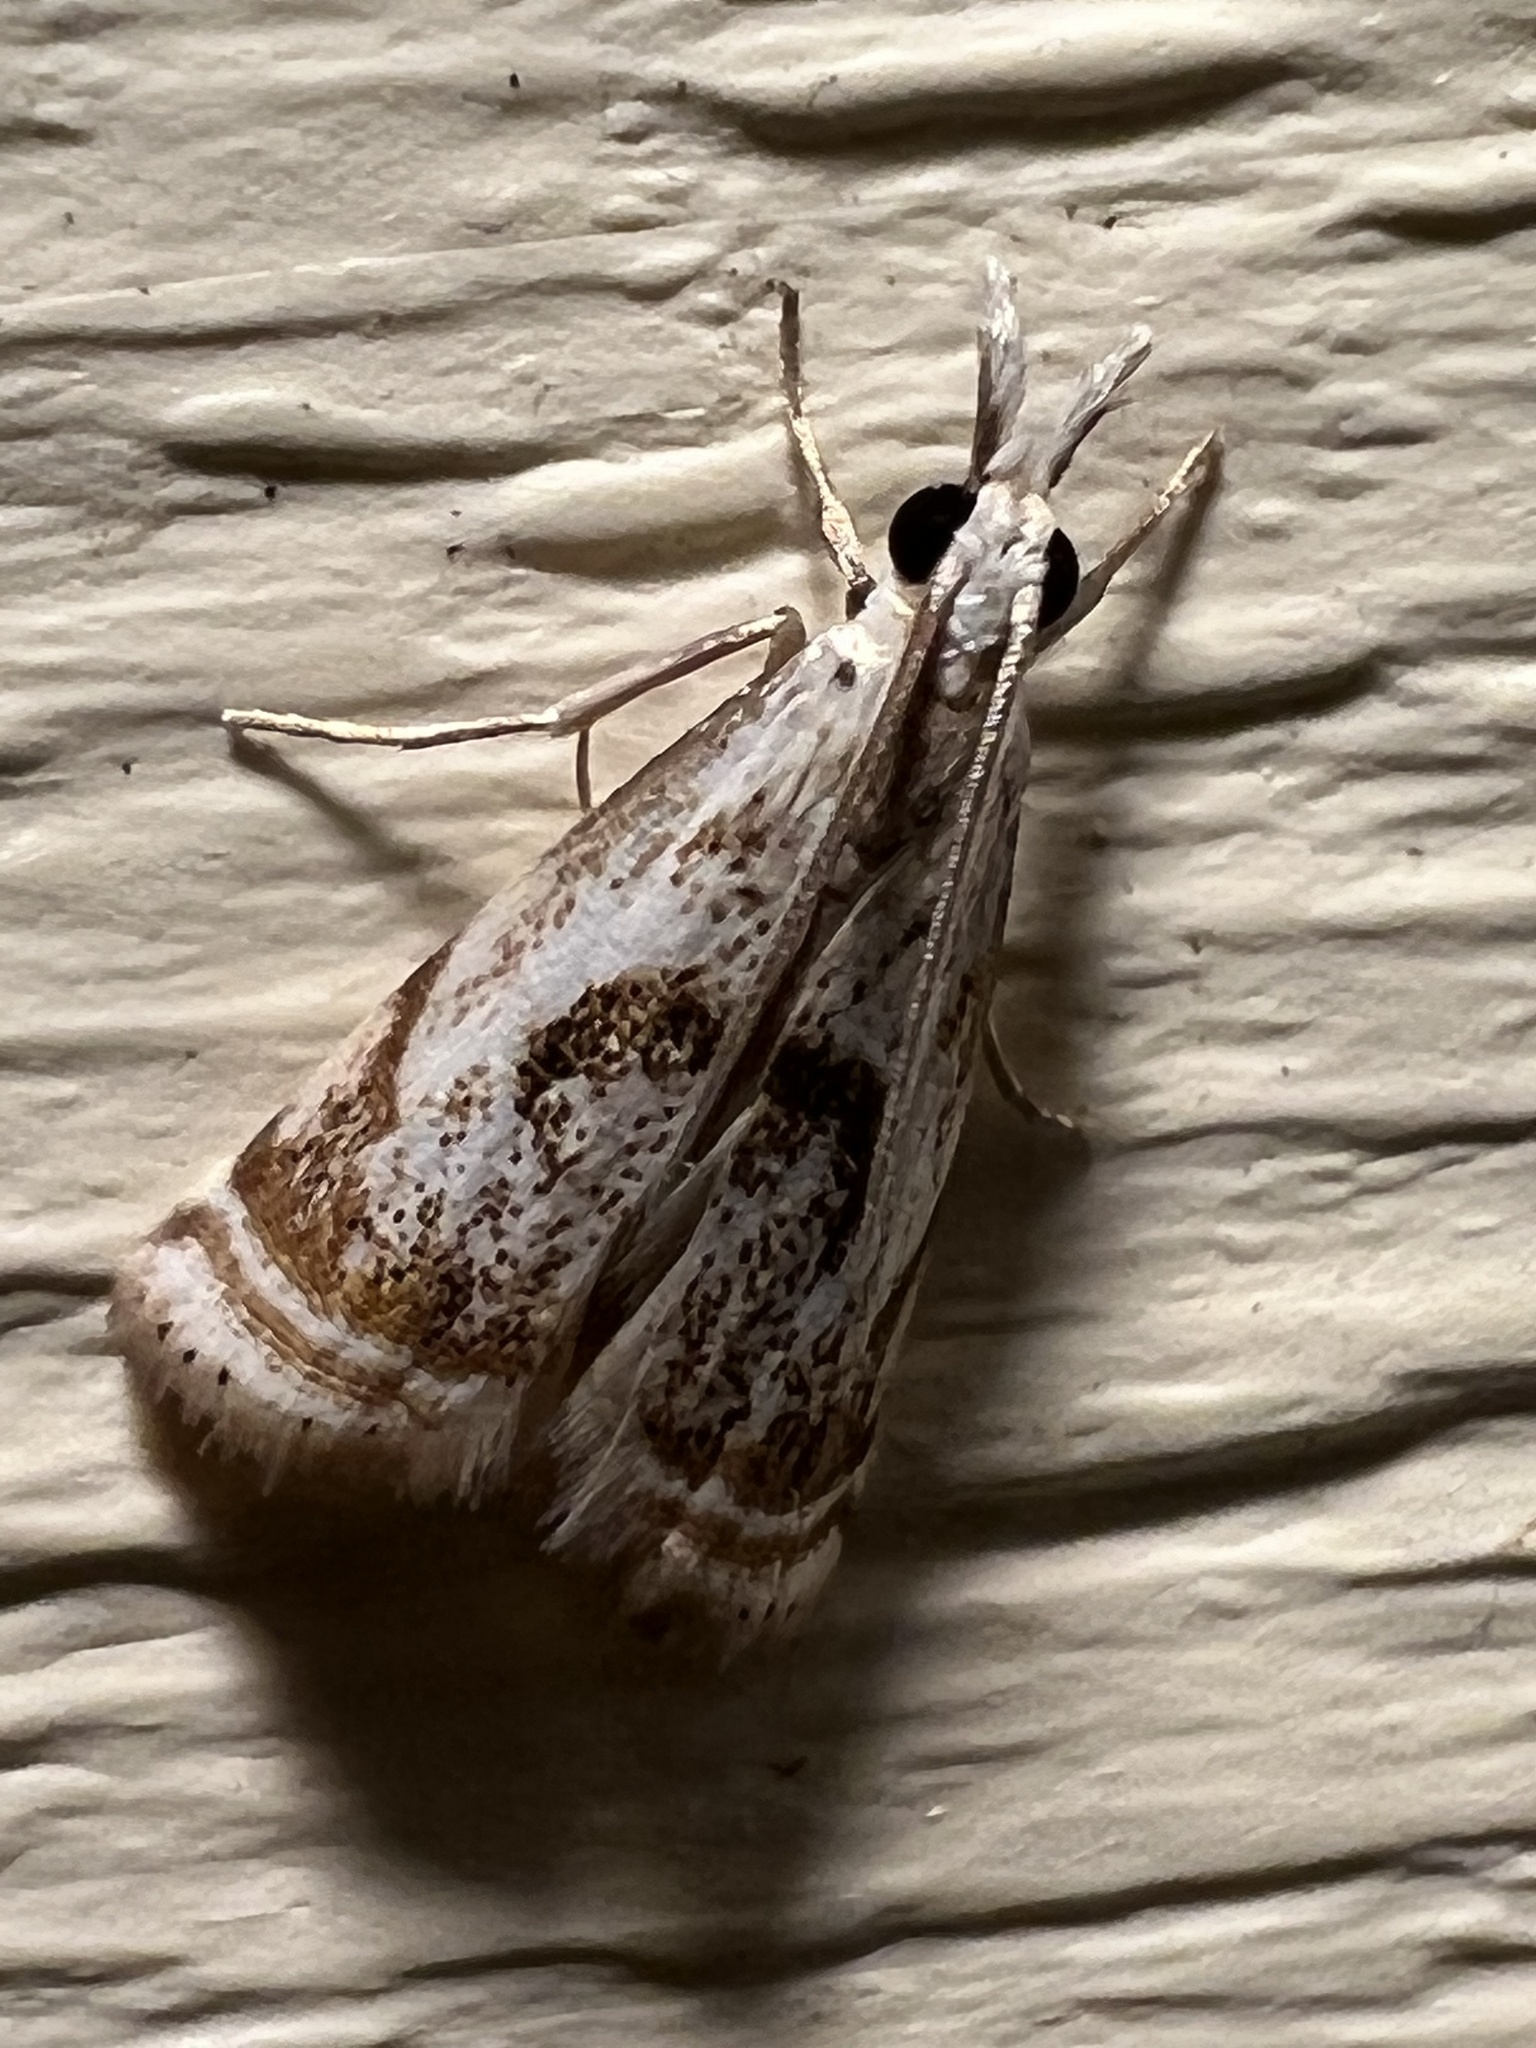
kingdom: Animalia
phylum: Arthropoda
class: Insecta
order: Lepidoptera
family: Crambidae
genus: Microcrambus
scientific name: Microcrambus elegans
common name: Elegant grass-veneer
